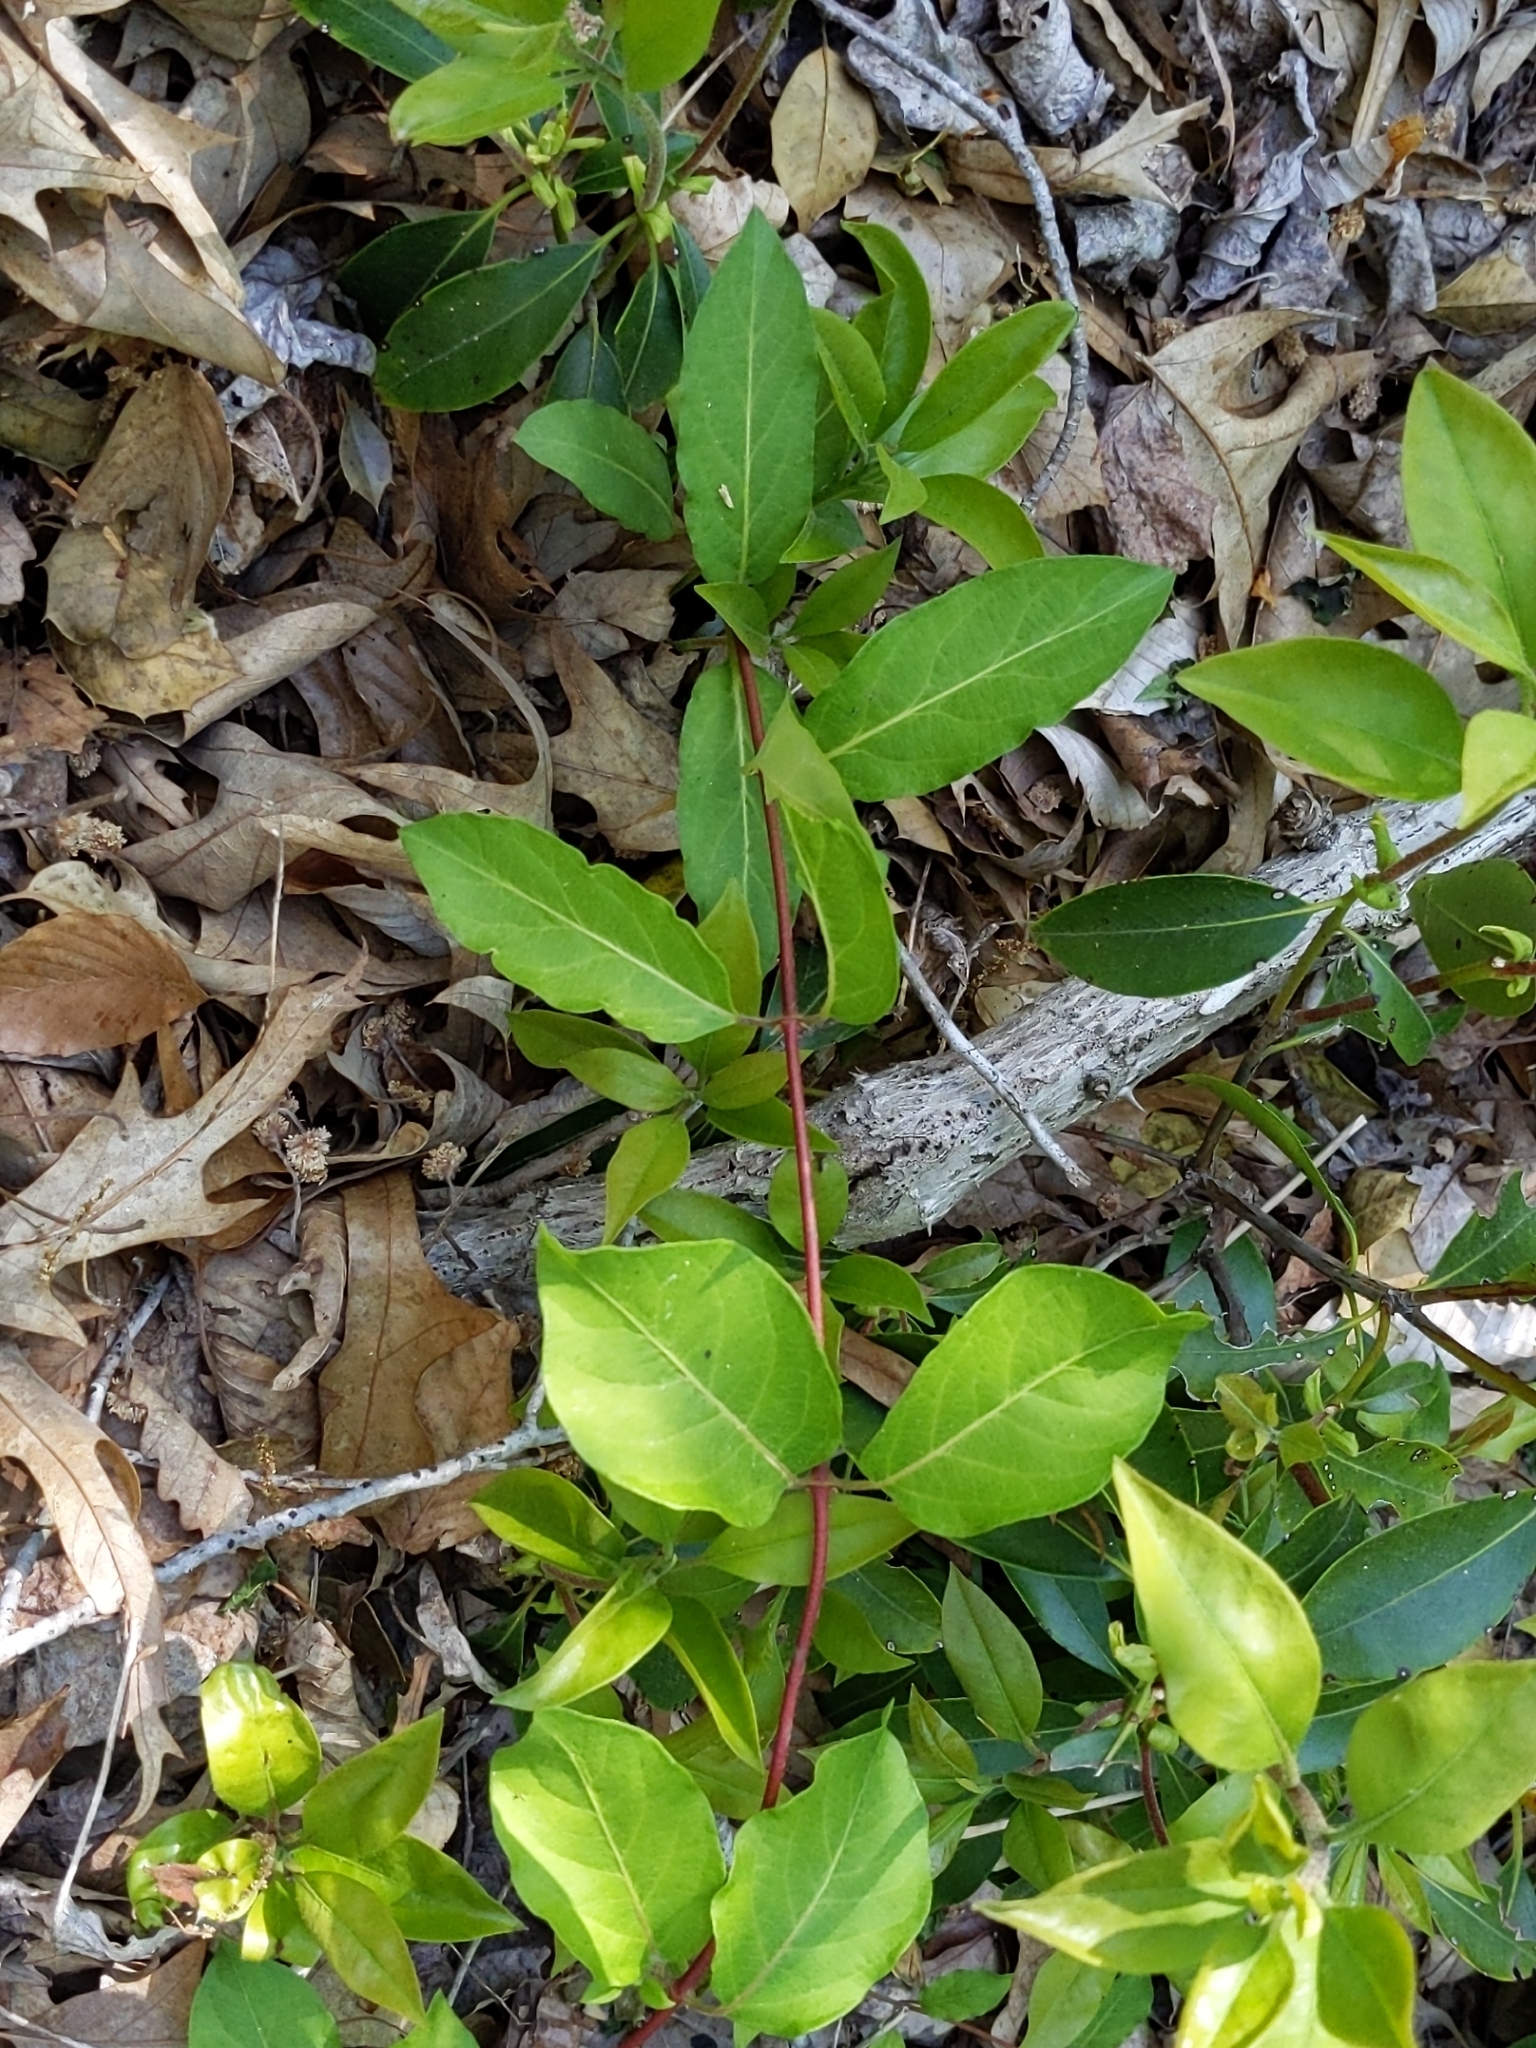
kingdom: Plantae
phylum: Tracheophyta
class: Magnoliopsida
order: Dipsacales
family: Caprifoliaceae
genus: Lonicera
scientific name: Lonicera japonica
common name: Japanese honeysuckle
